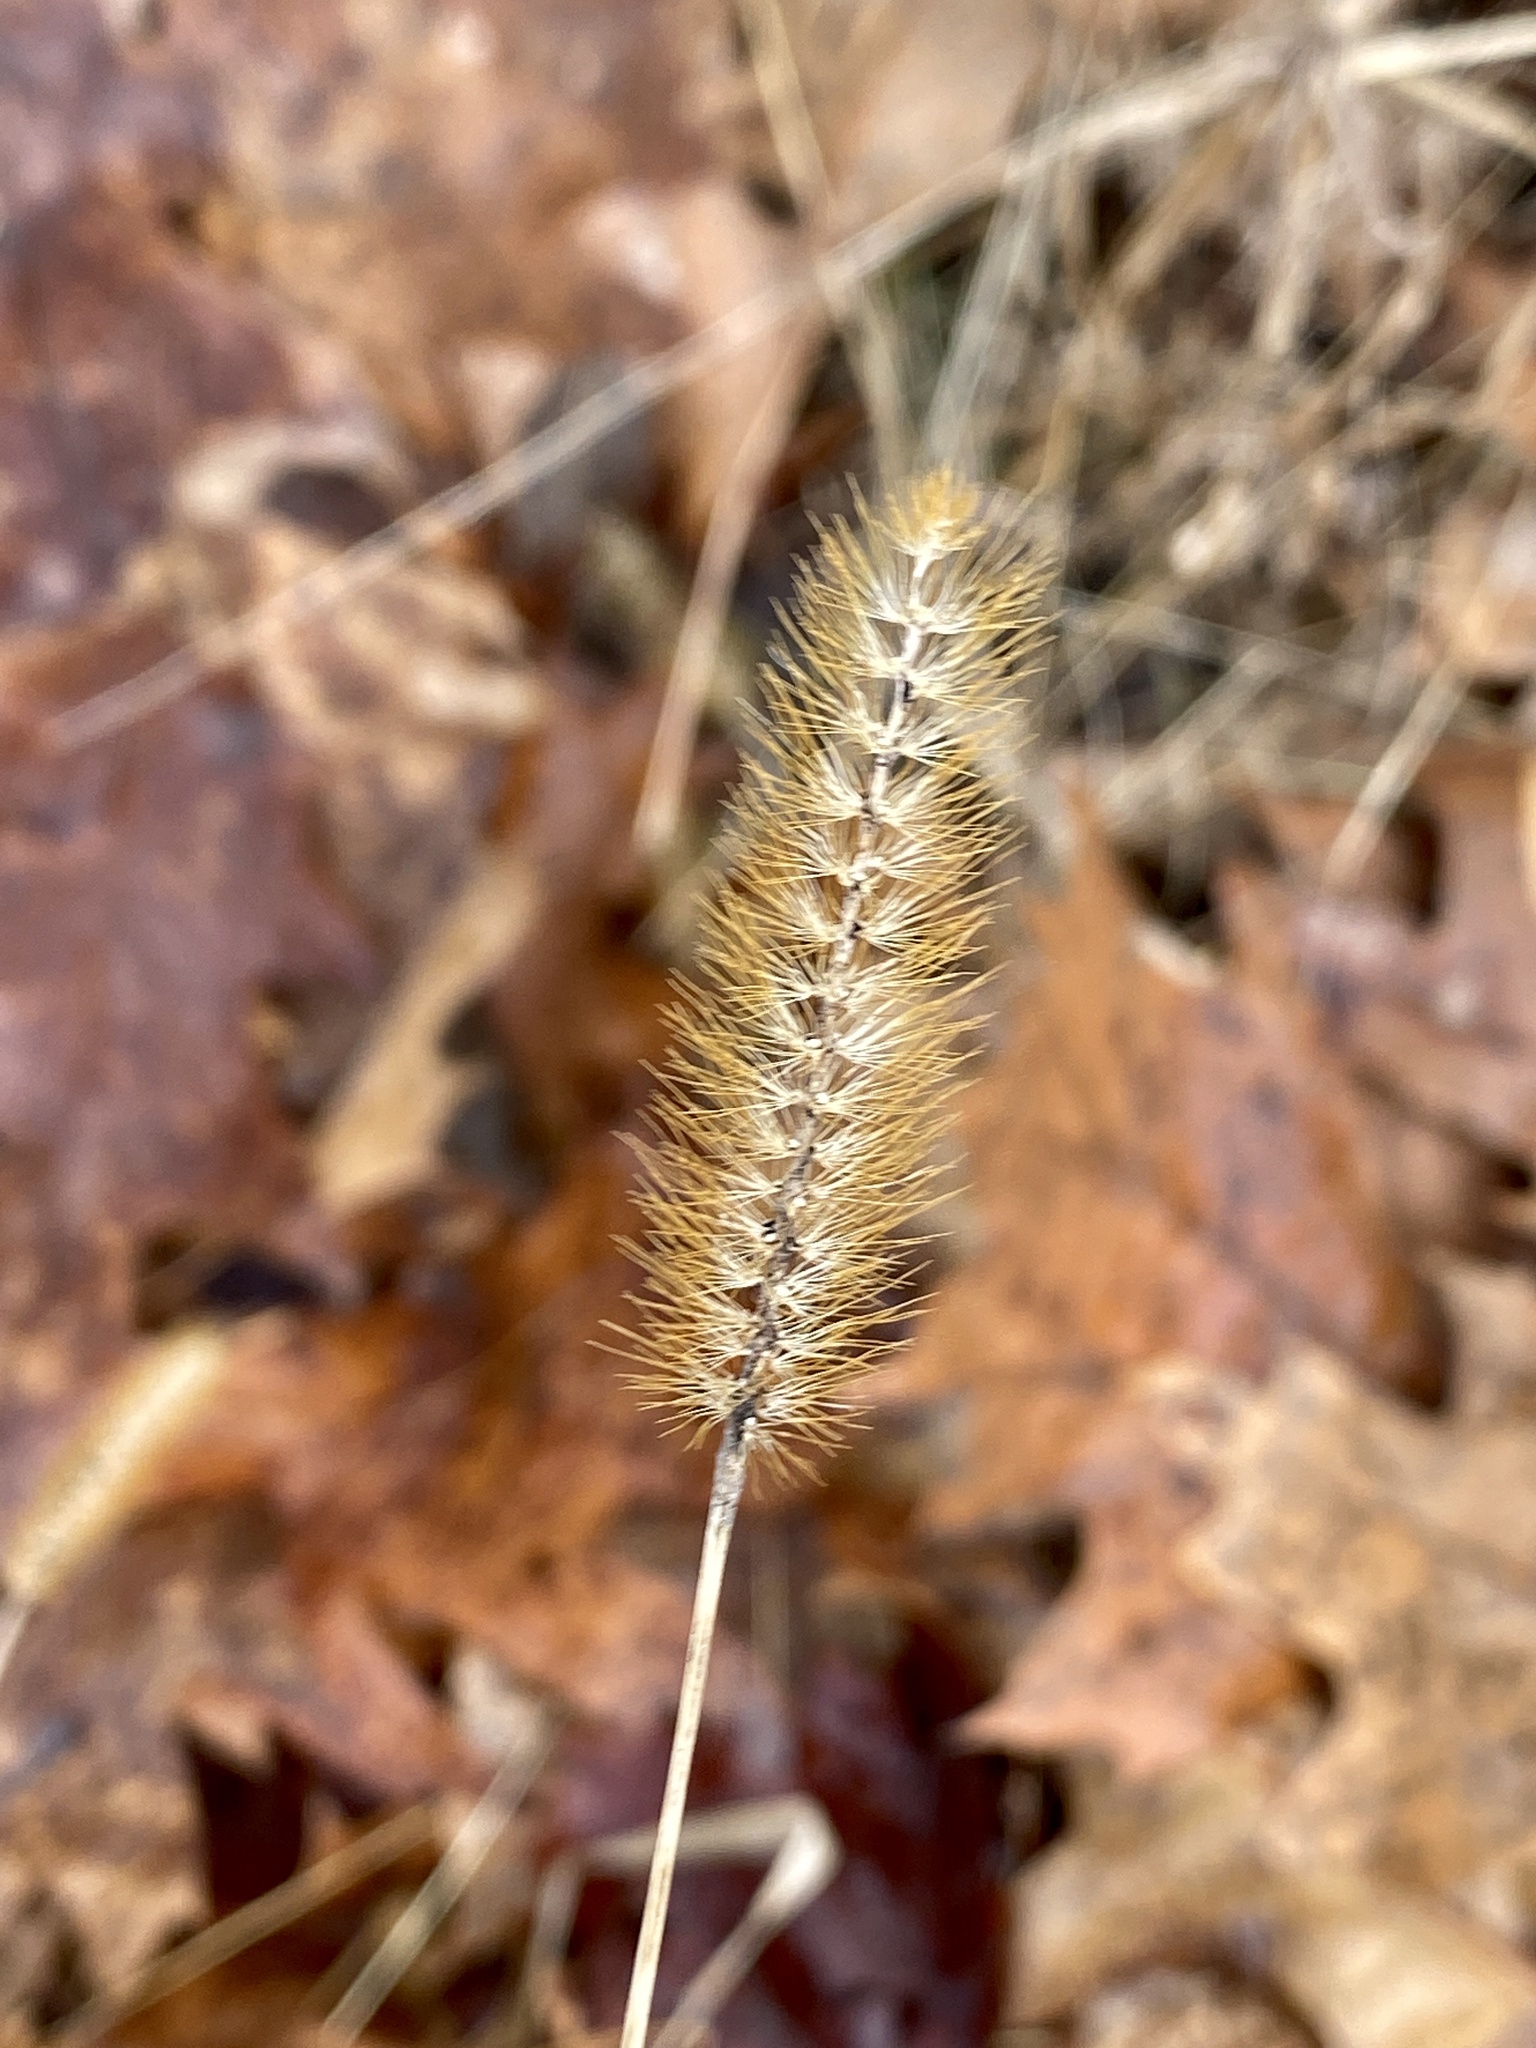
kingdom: Plantae
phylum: Tracheophyta
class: Liliopsida
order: Poales
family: Poaceae
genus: Setaria
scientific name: Setaria pumila
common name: Yellow bristle-grass
